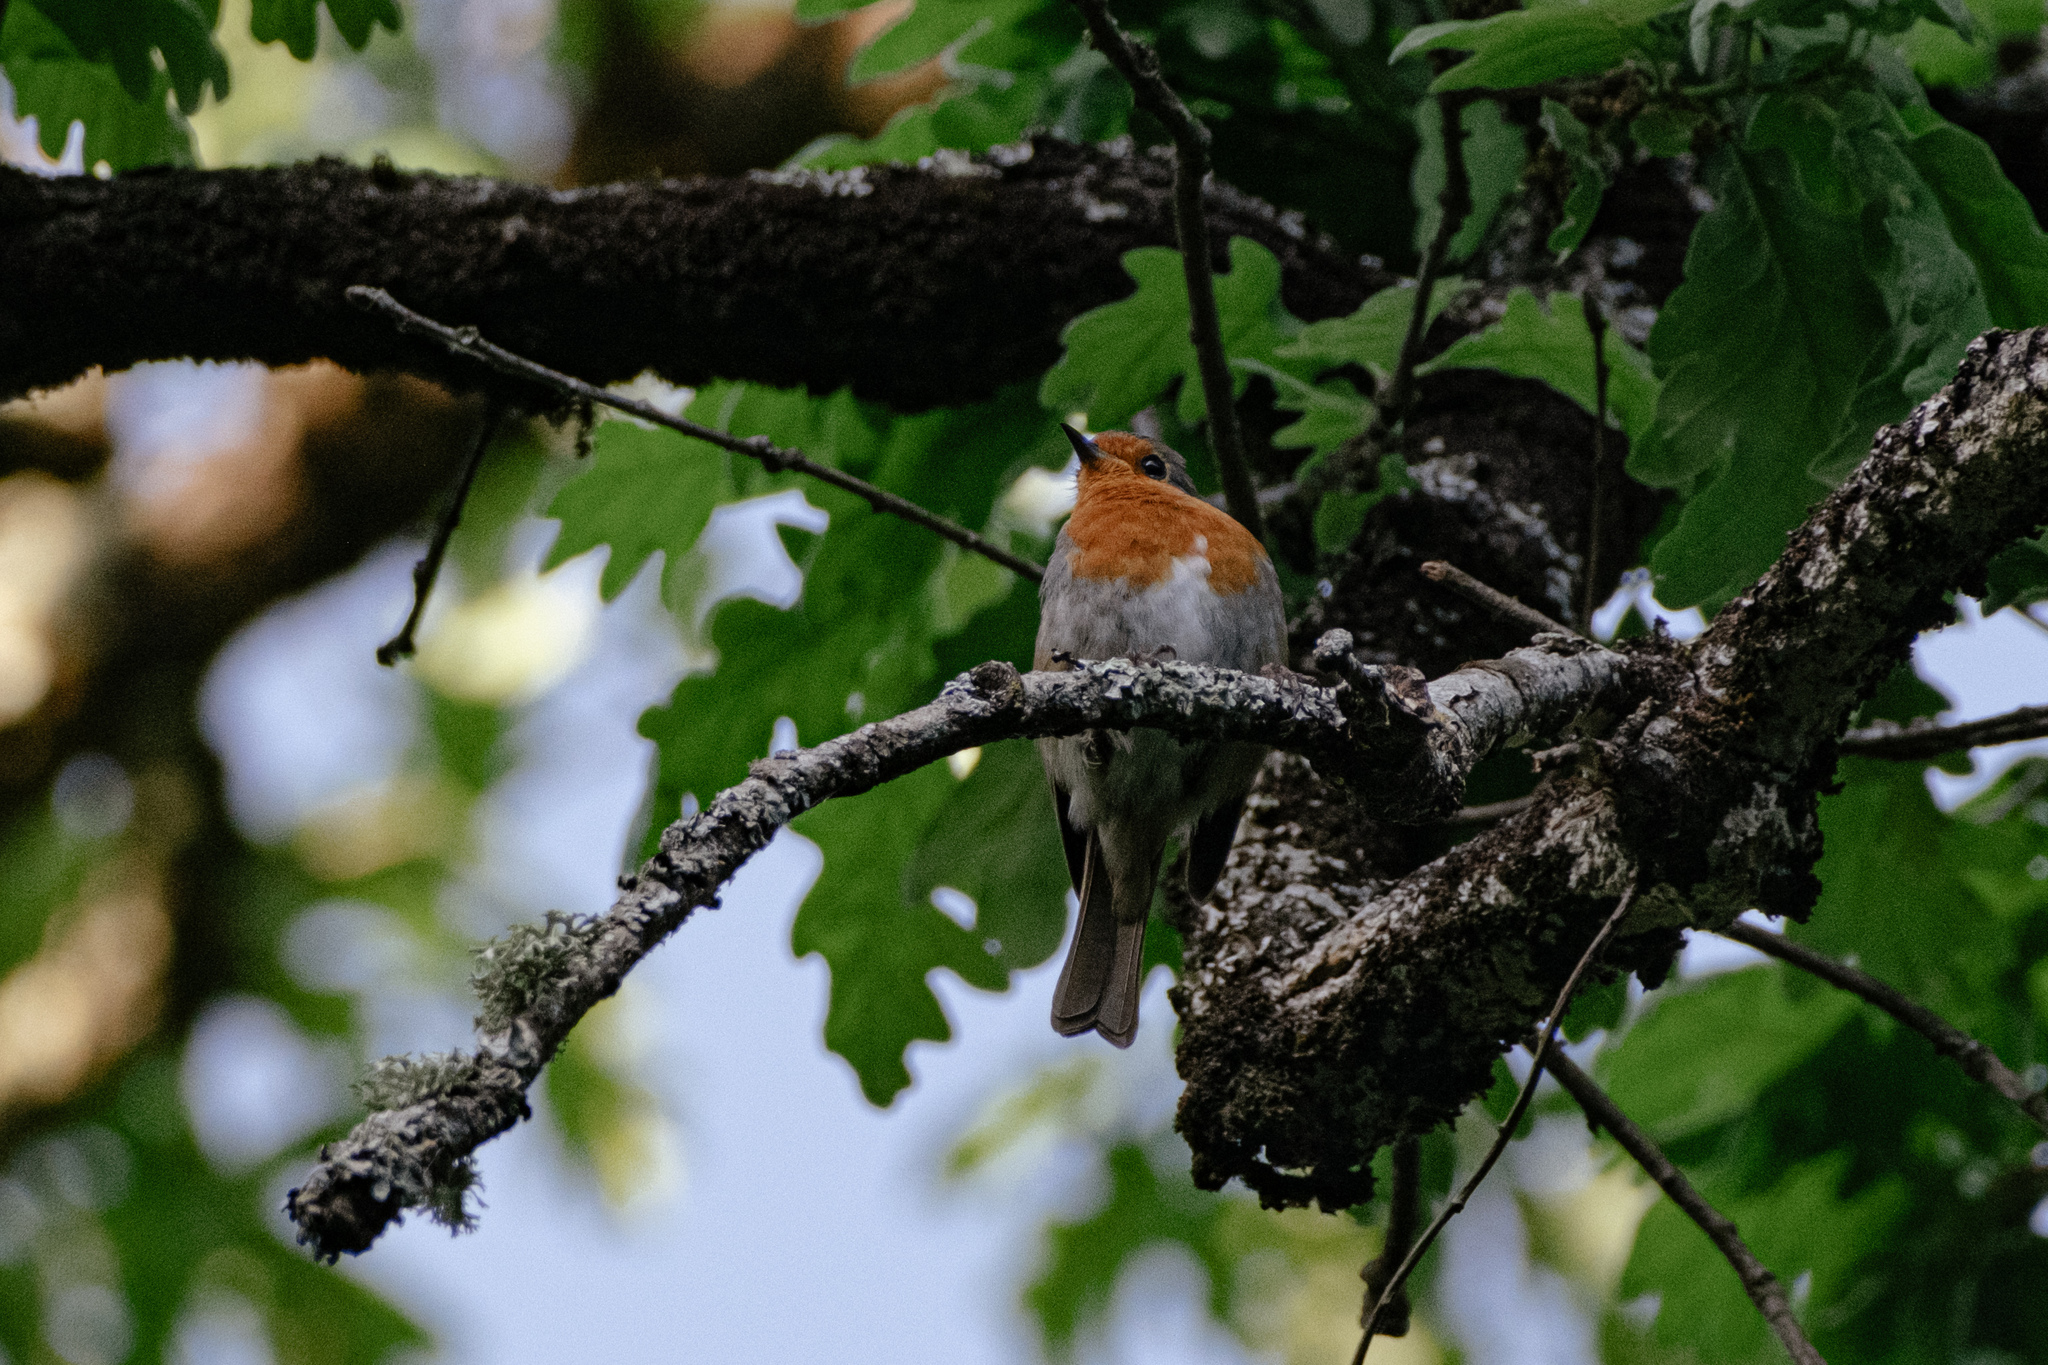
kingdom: Animalia
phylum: Chordata
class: Aves
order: Passeriformes
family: Muscicapidae
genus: Erithacus
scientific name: Erithacus rubecula
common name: European robin
